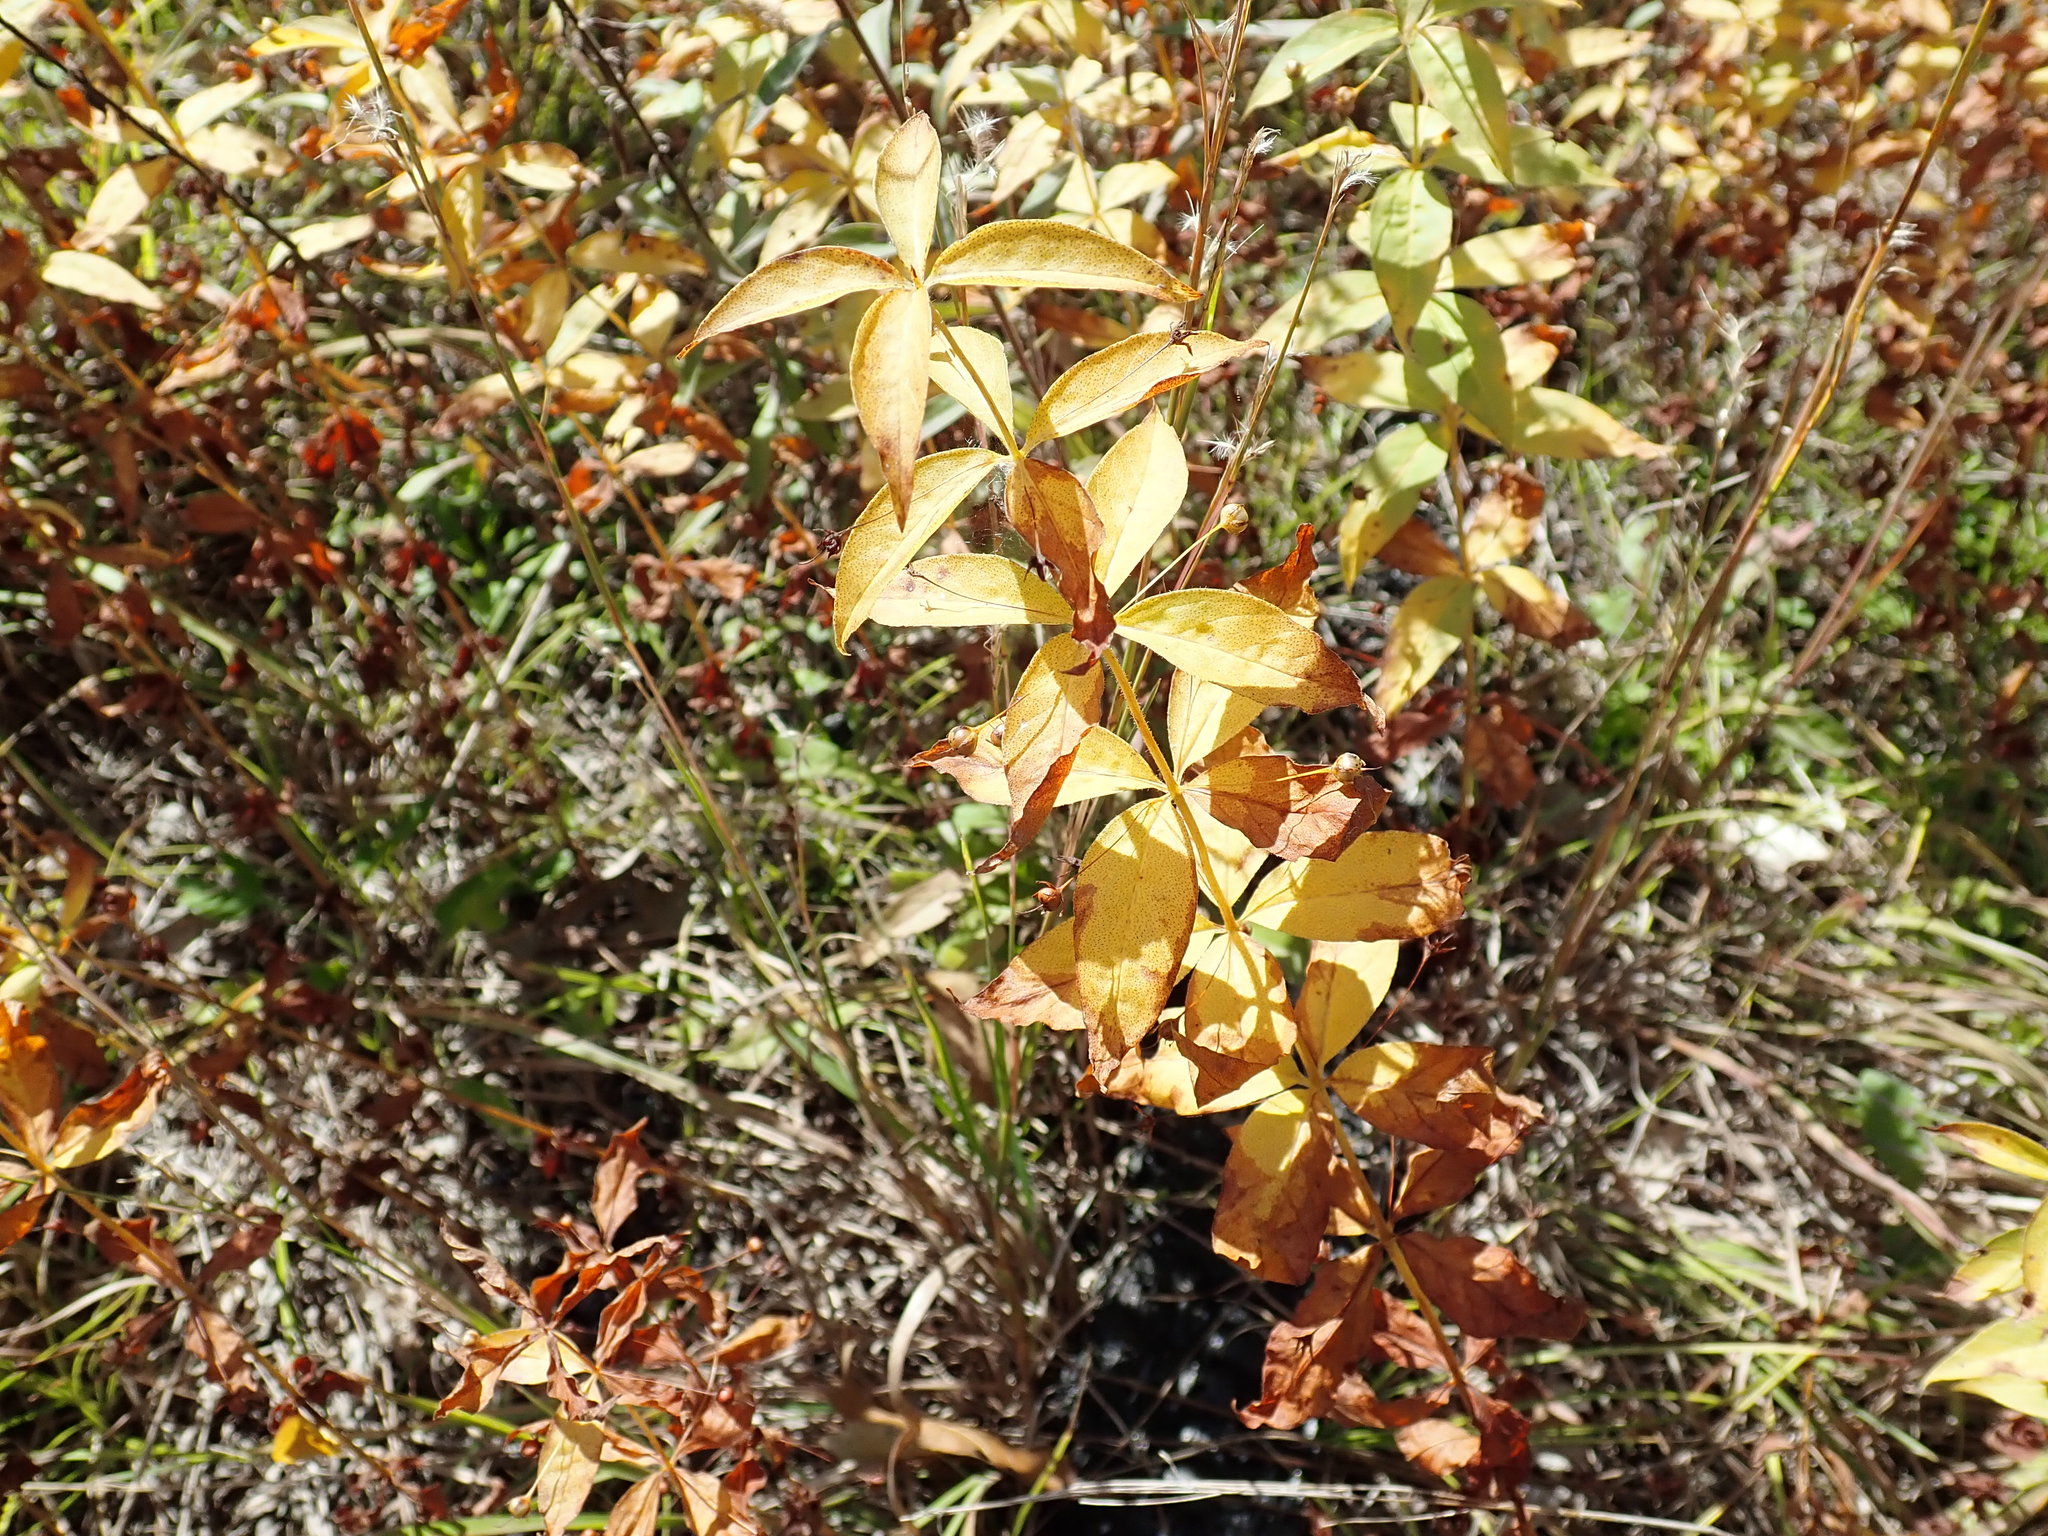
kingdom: Plantae
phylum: Tracheophyta
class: Magnoliopsida
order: Ericales
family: Primulaceae
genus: Lysimachia
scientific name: Lysimachia quadrifolia
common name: Whorled loosestrife
